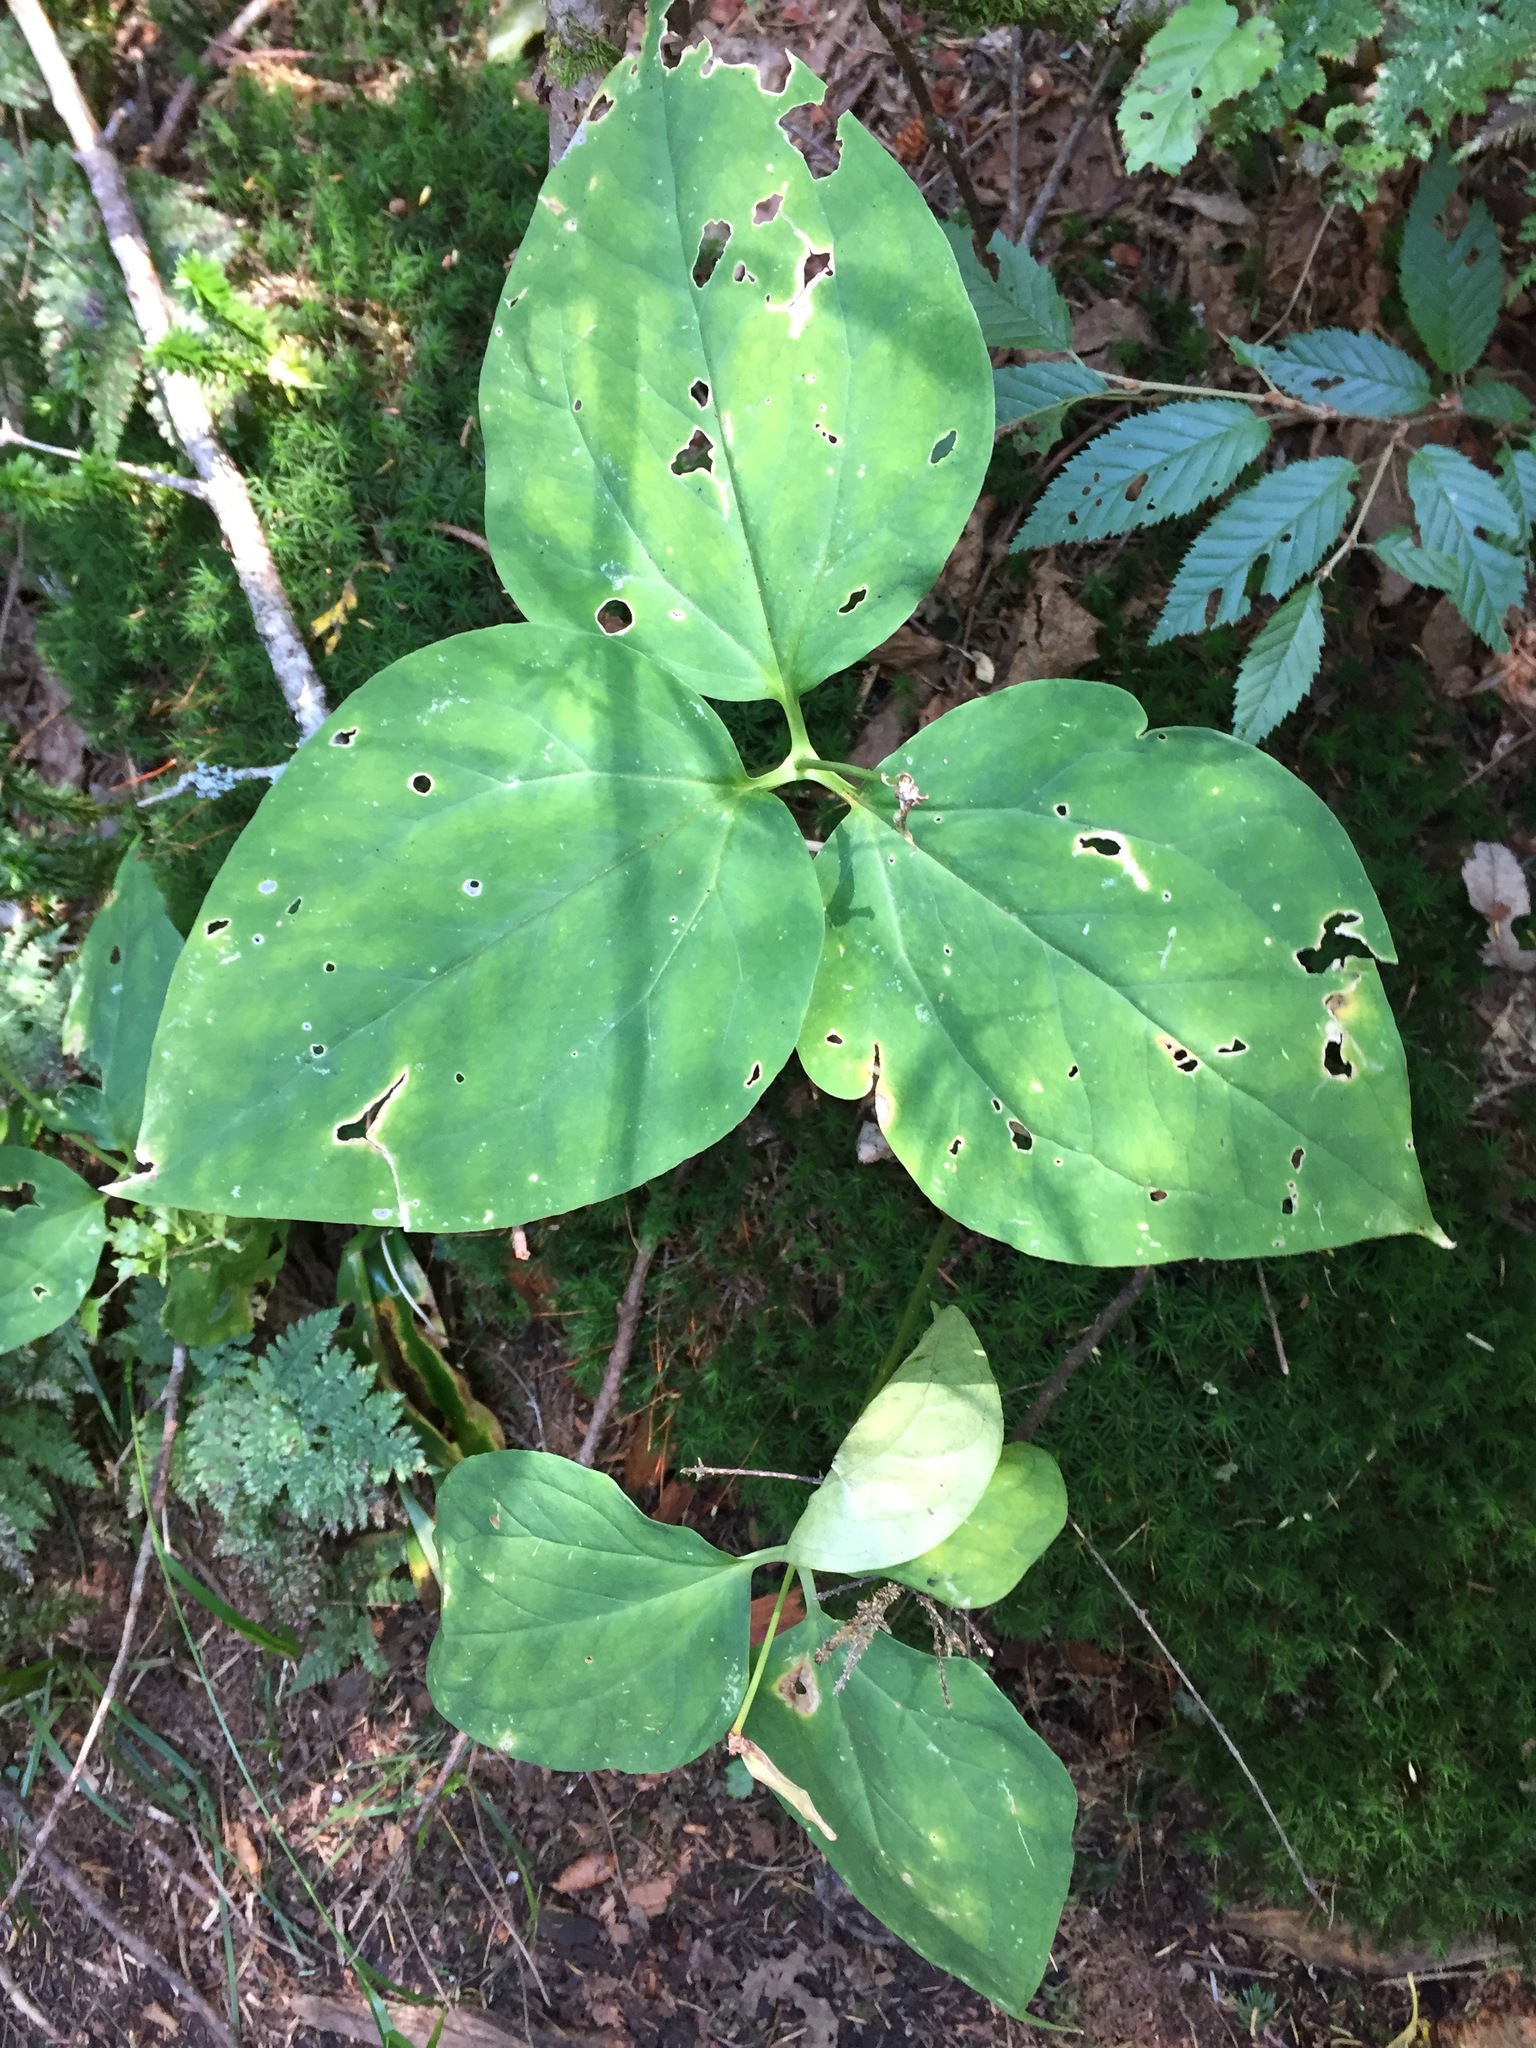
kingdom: Plantae
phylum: Tracheophyta
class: Liliopsida
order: Liliales
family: Melanthiaceae
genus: Trillium
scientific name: Trillium undulatum
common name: Paint trillium
